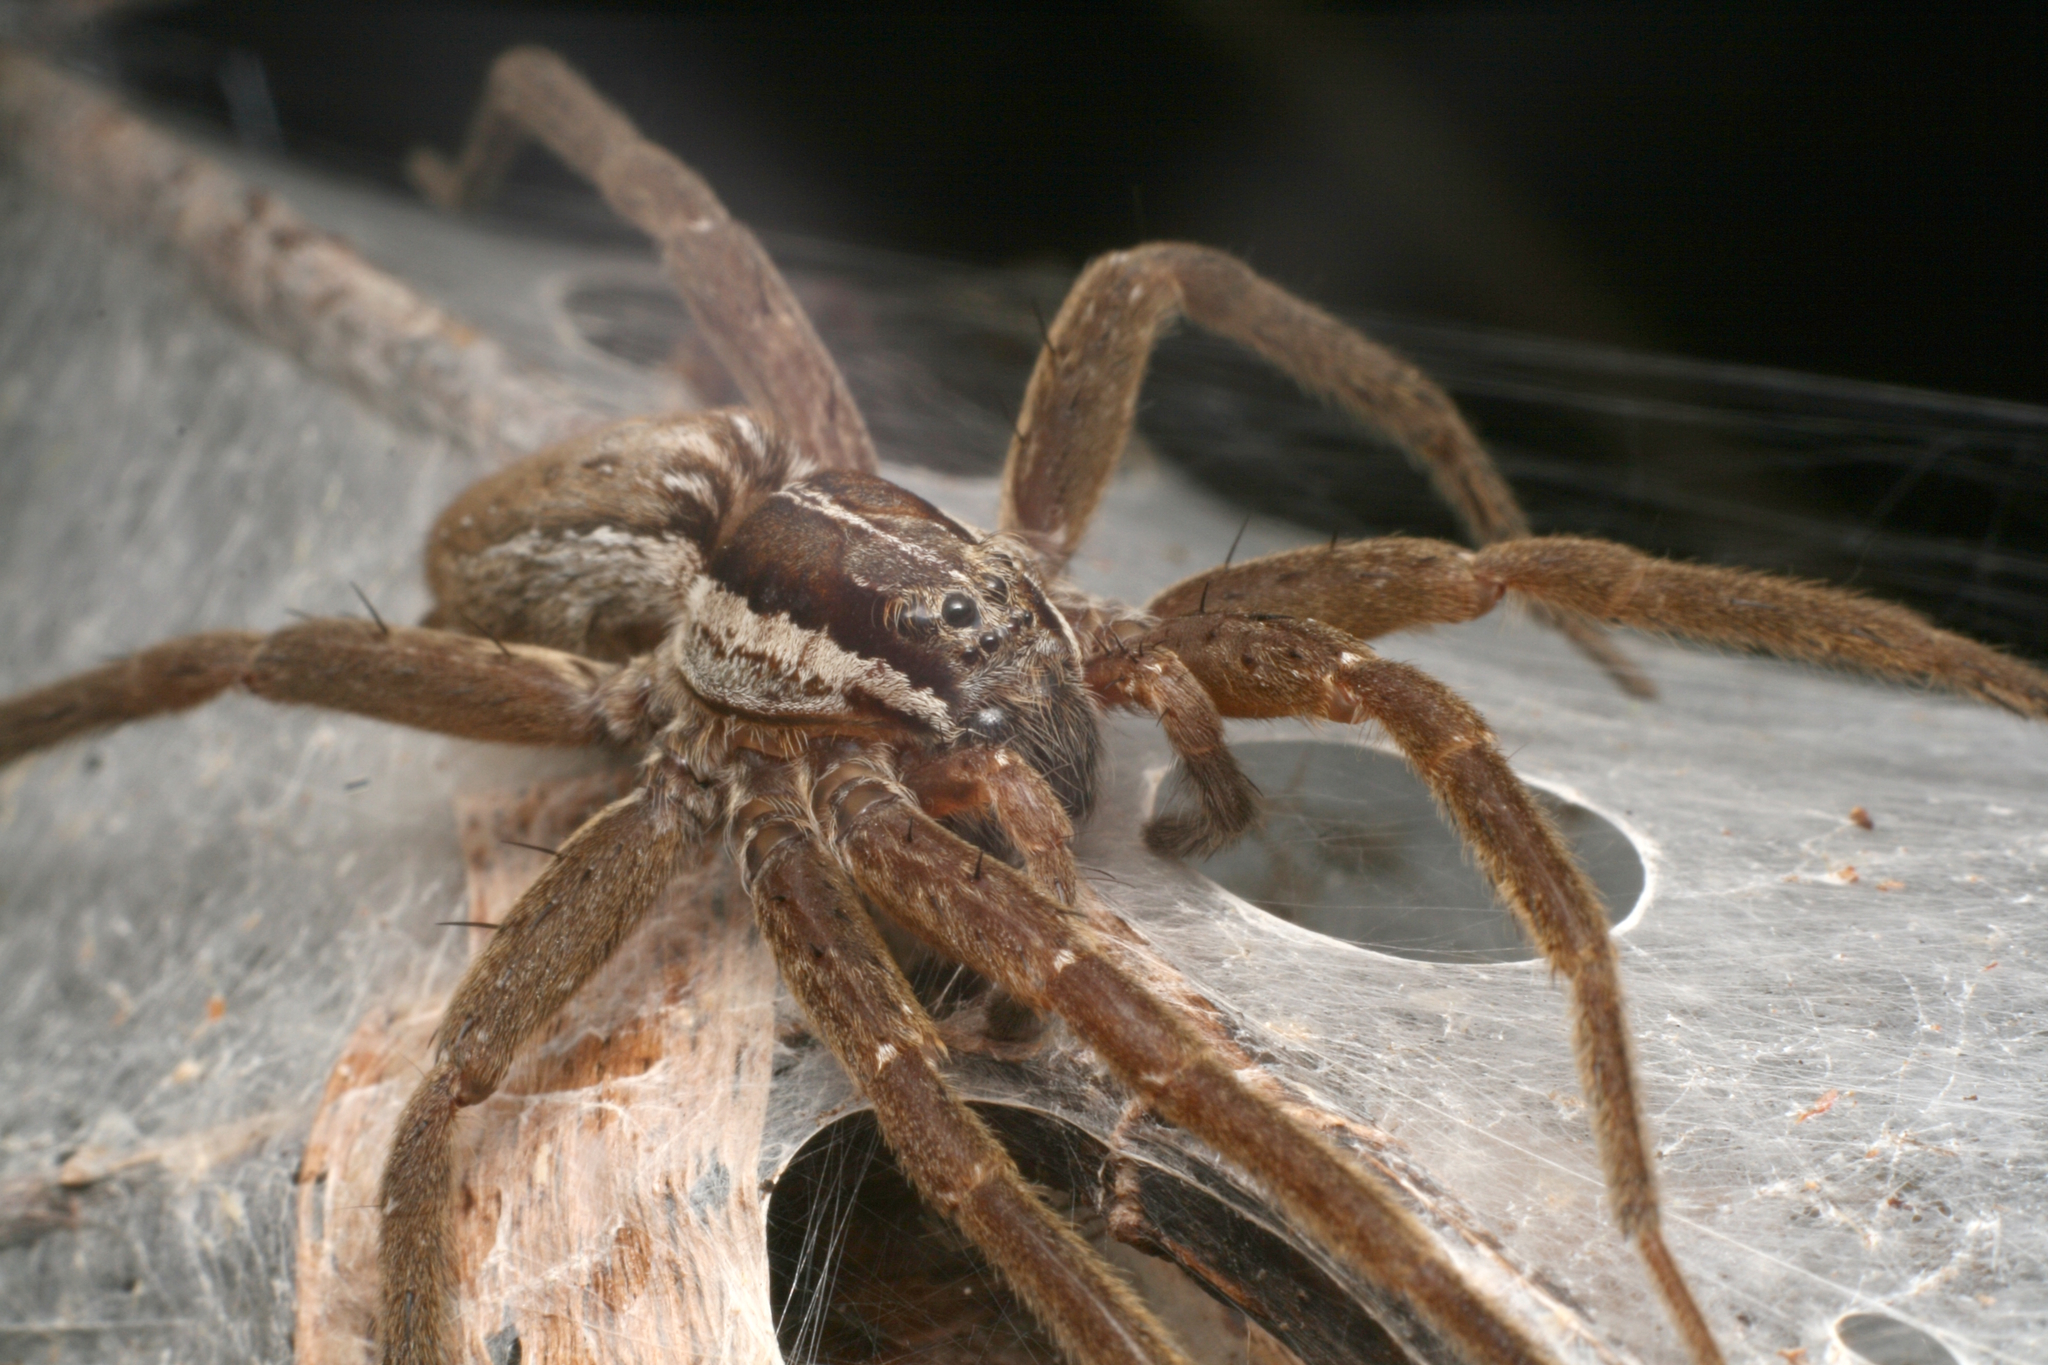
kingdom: Animalia
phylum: Arthropoda
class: Arachnida
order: Araneae
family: Pisauridae
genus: Dolomedes
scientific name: Dolomedes minor
